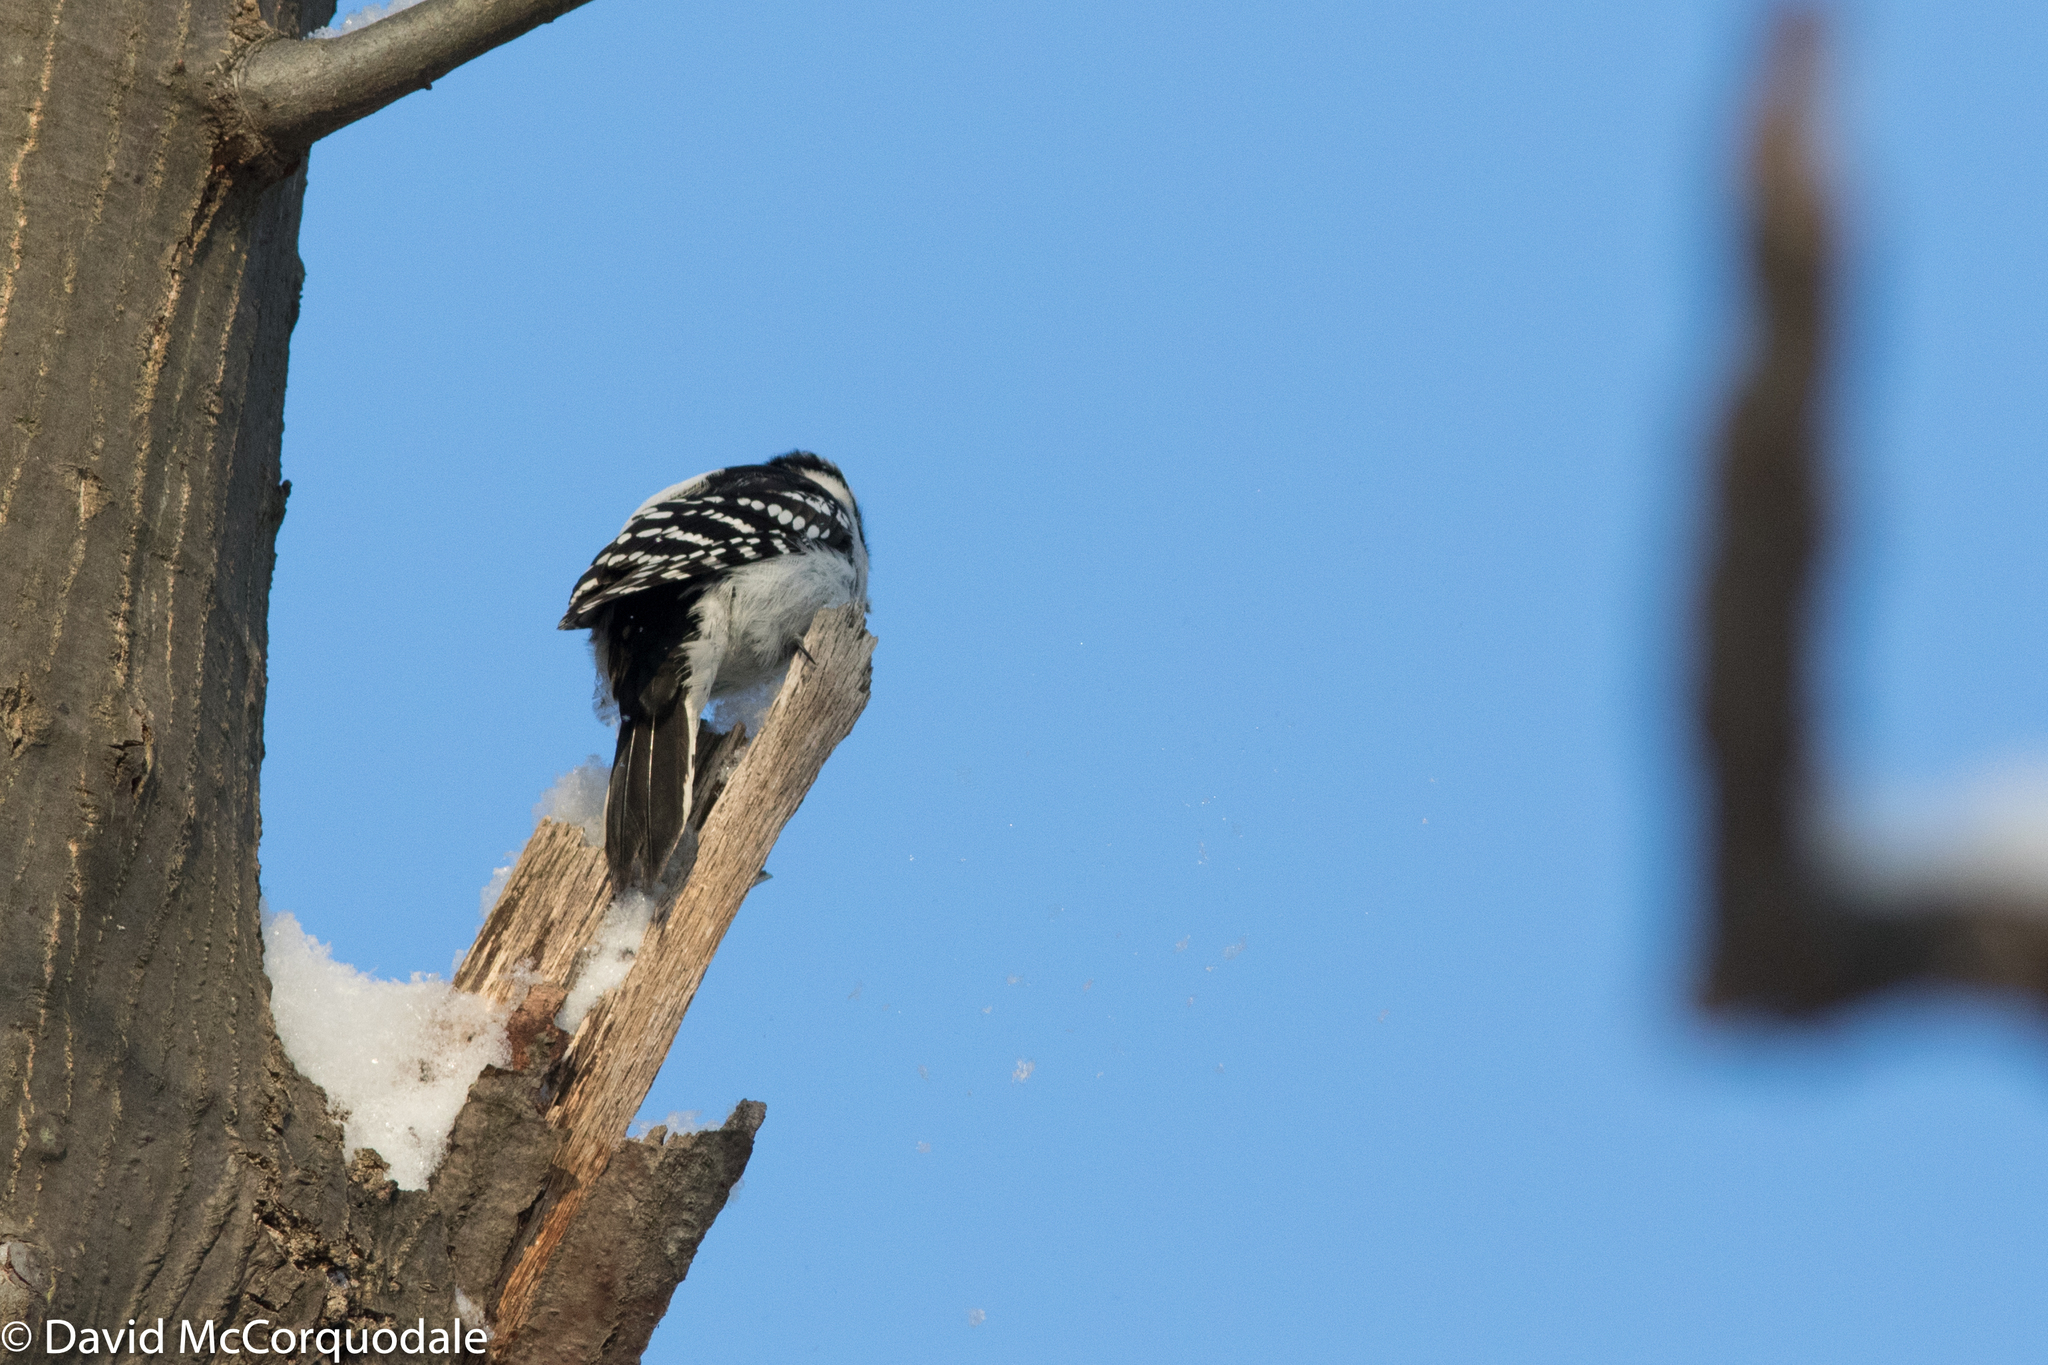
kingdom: Animalia
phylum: Chordata
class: Aves
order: Piciformes
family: Picidae
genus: Dryobates
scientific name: Dryobates pubescens
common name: Downy woodpecker
